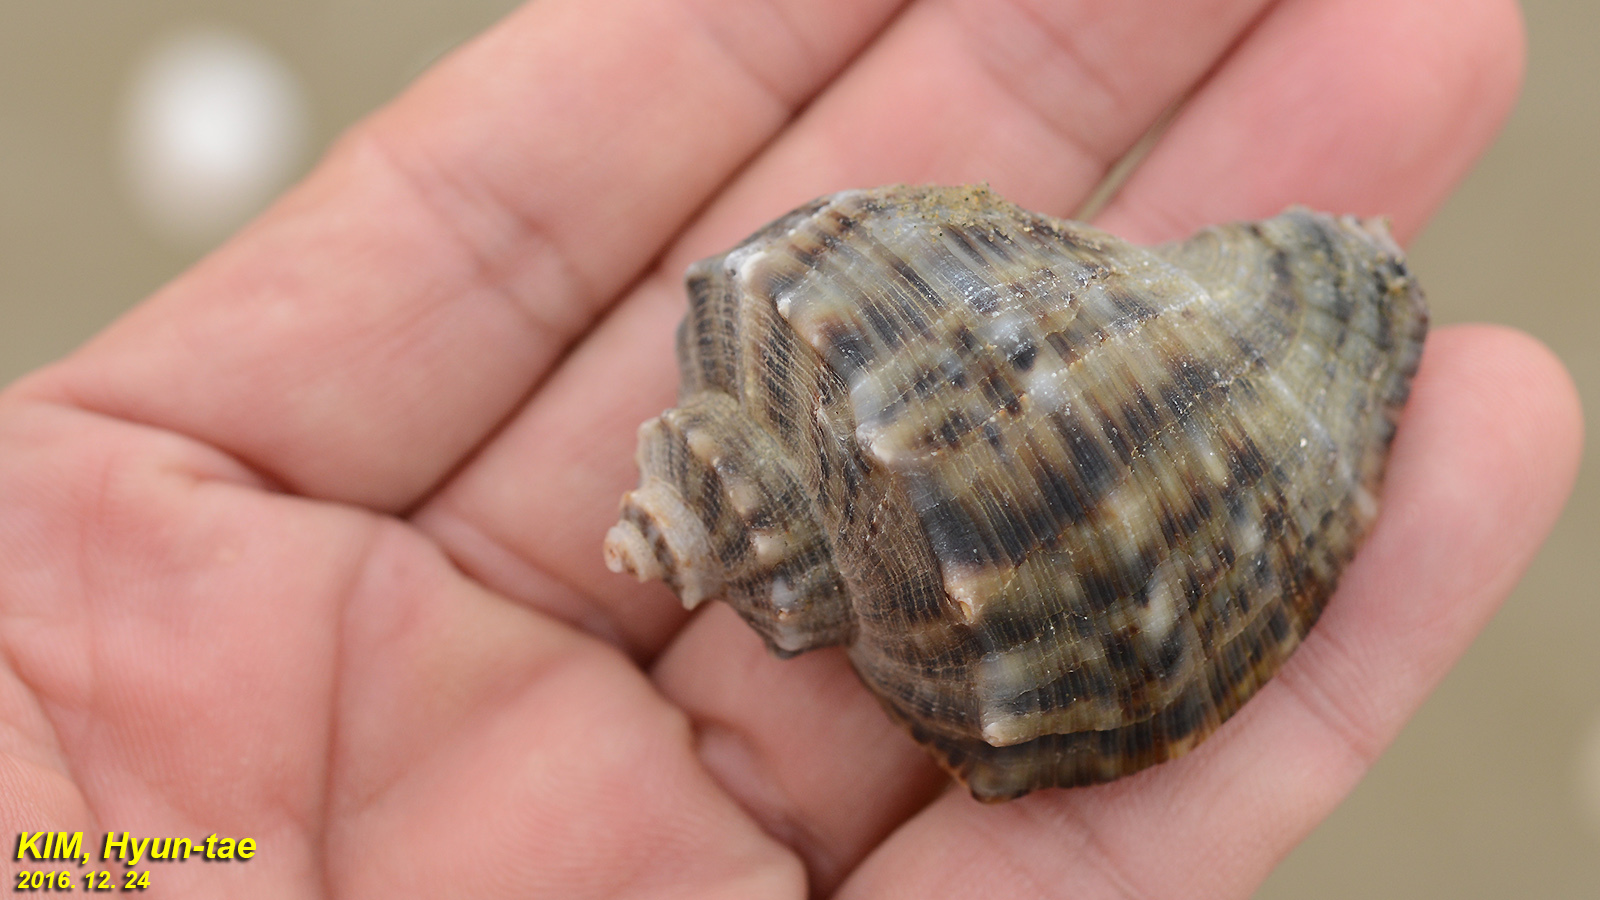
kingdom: Animalia
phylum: Mollusca
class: Gastropoda
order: Neogastropoda
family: Muricidae
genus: Rapana
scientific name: Rapana venosa
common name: Veined rapa whelk
